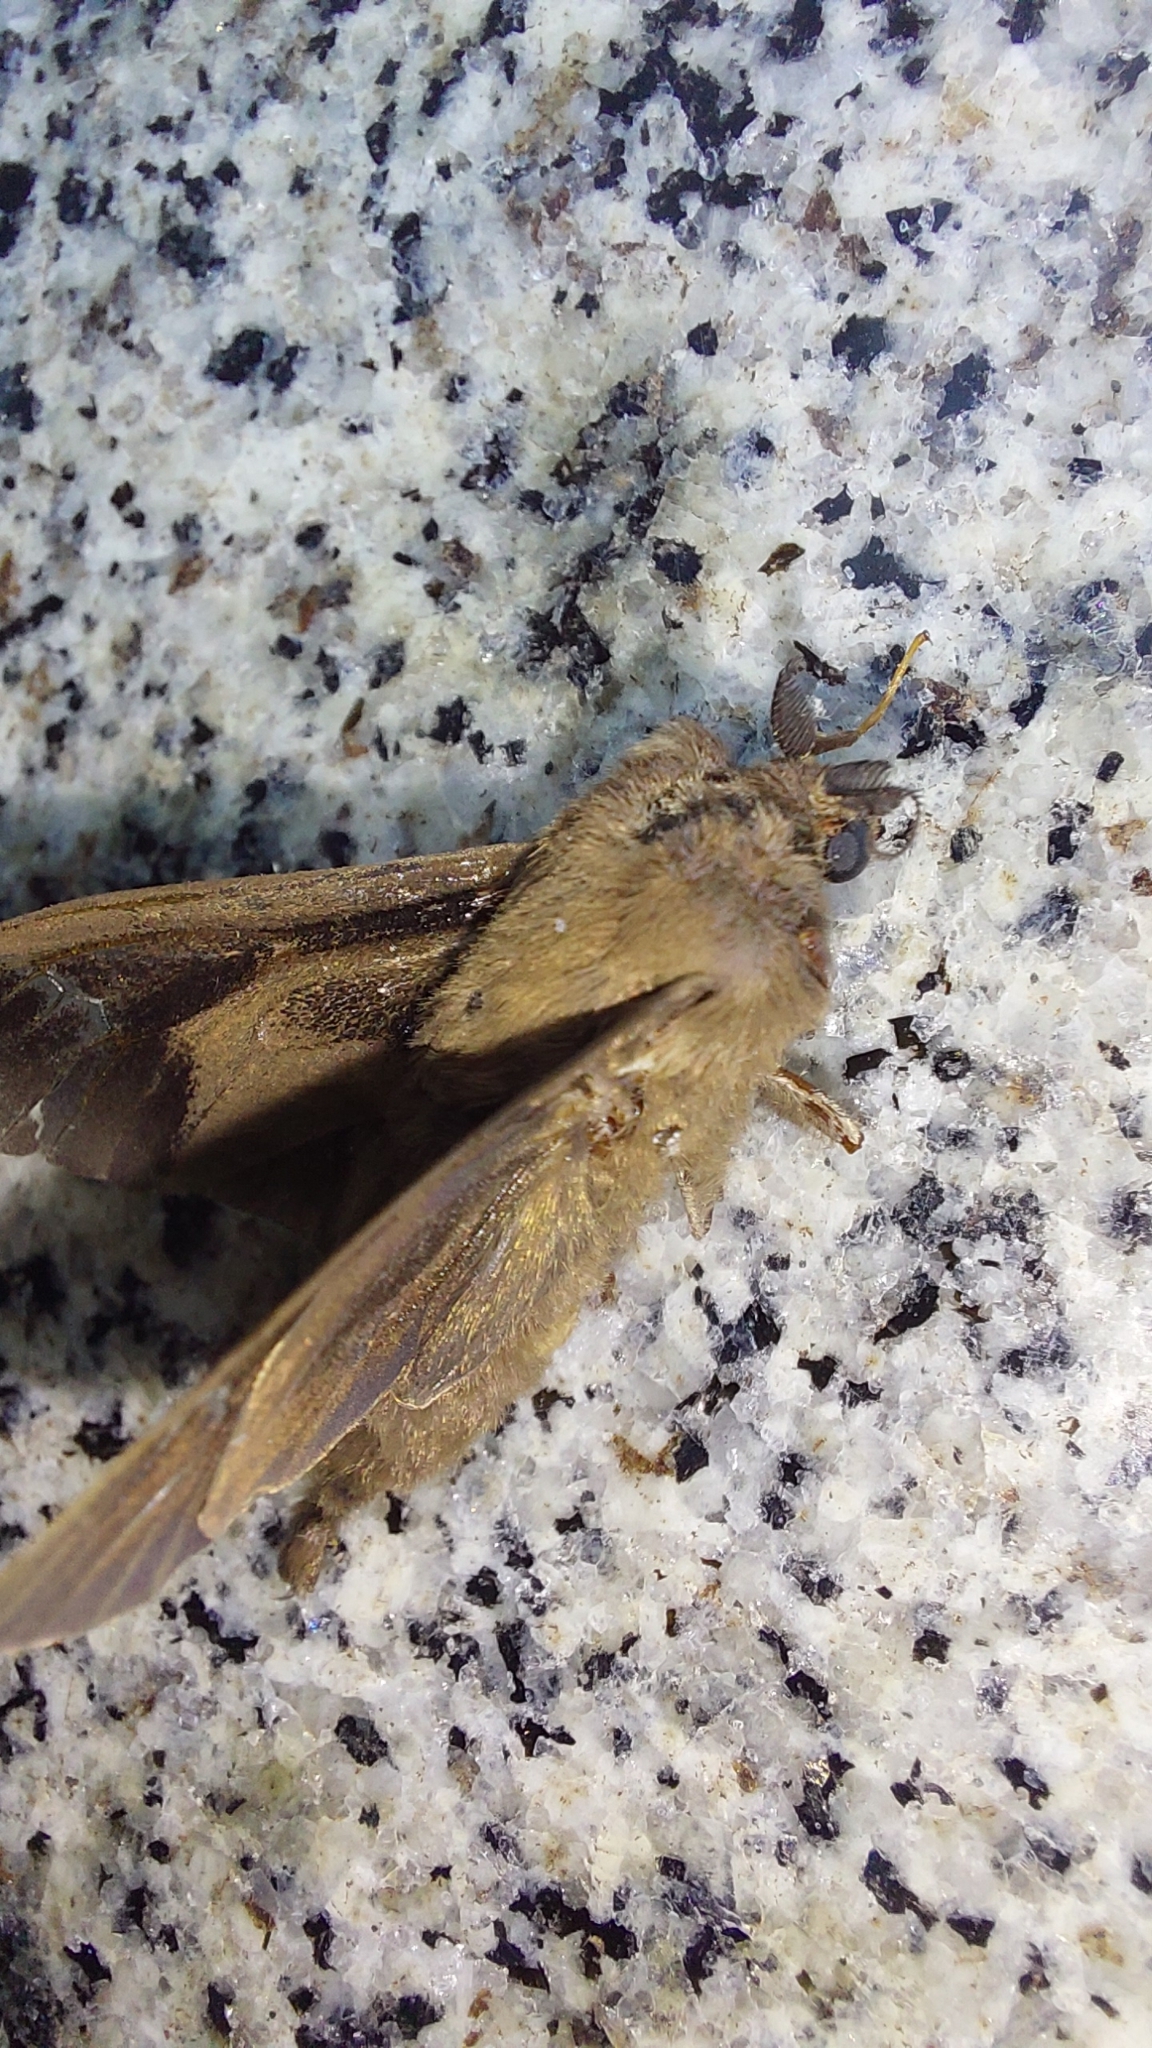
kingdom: Animalia
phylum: Arthropoda
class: Insecta
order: Lepidoptera
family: Psychidae
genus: Oiketicus
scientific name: Oiketicus kirbyi
